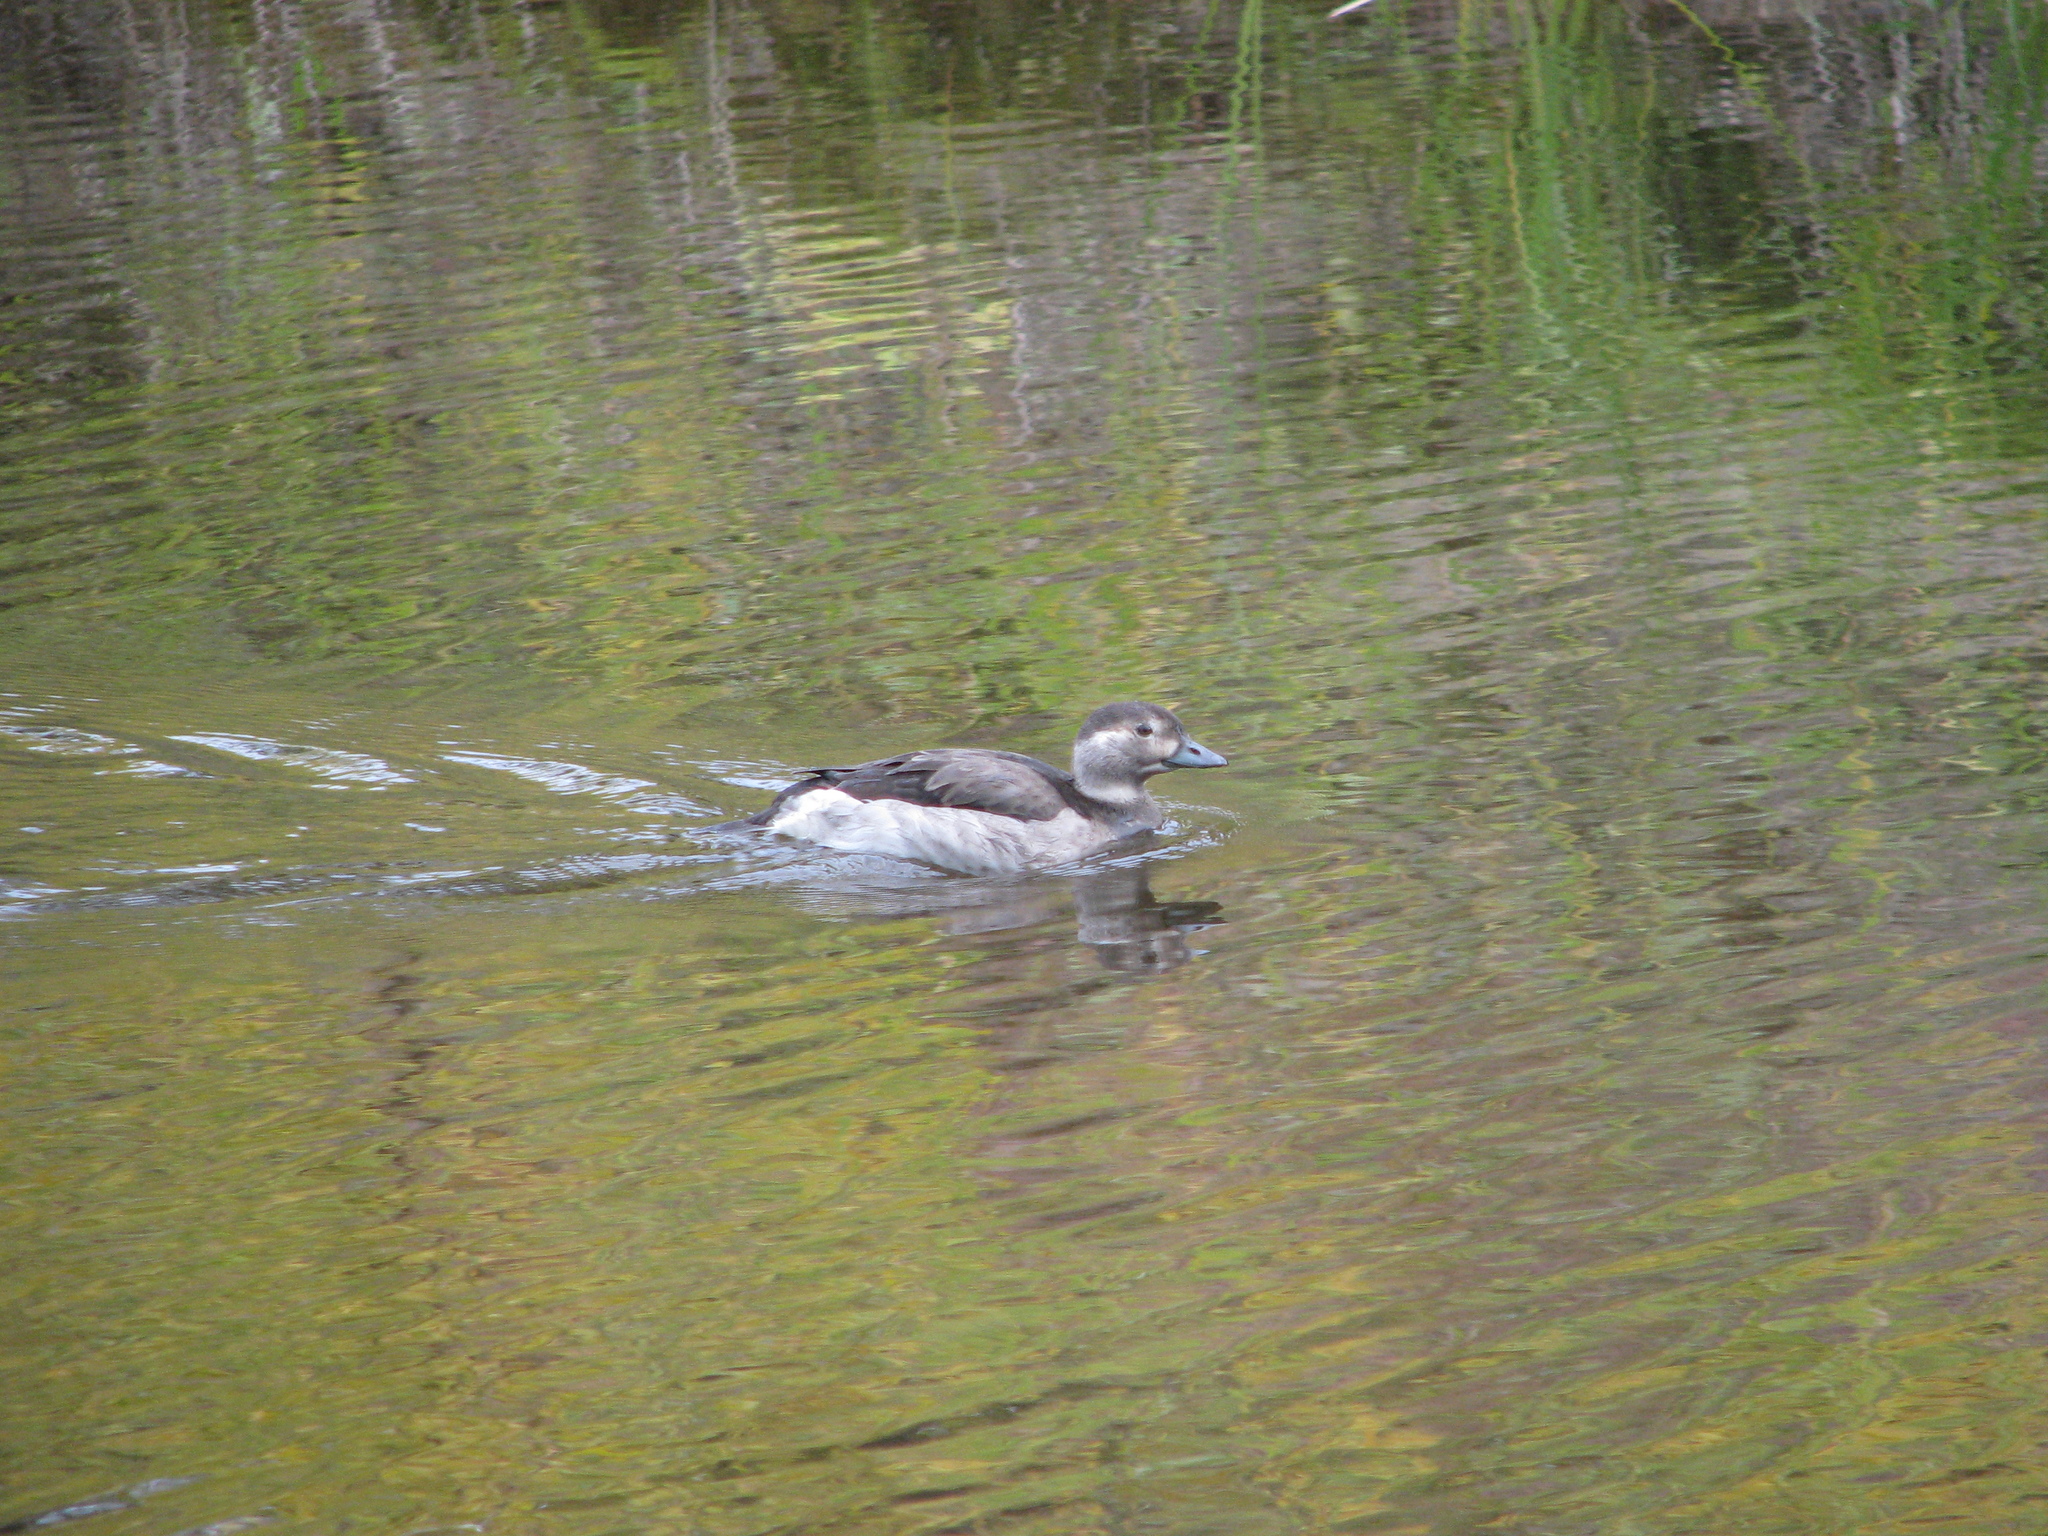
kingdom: Animalia
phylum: Chordata
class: Aves
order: Anseriformes
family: Anatidae
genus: Clangula
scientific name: Clangula hyemalis
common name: Long-tailed duck
